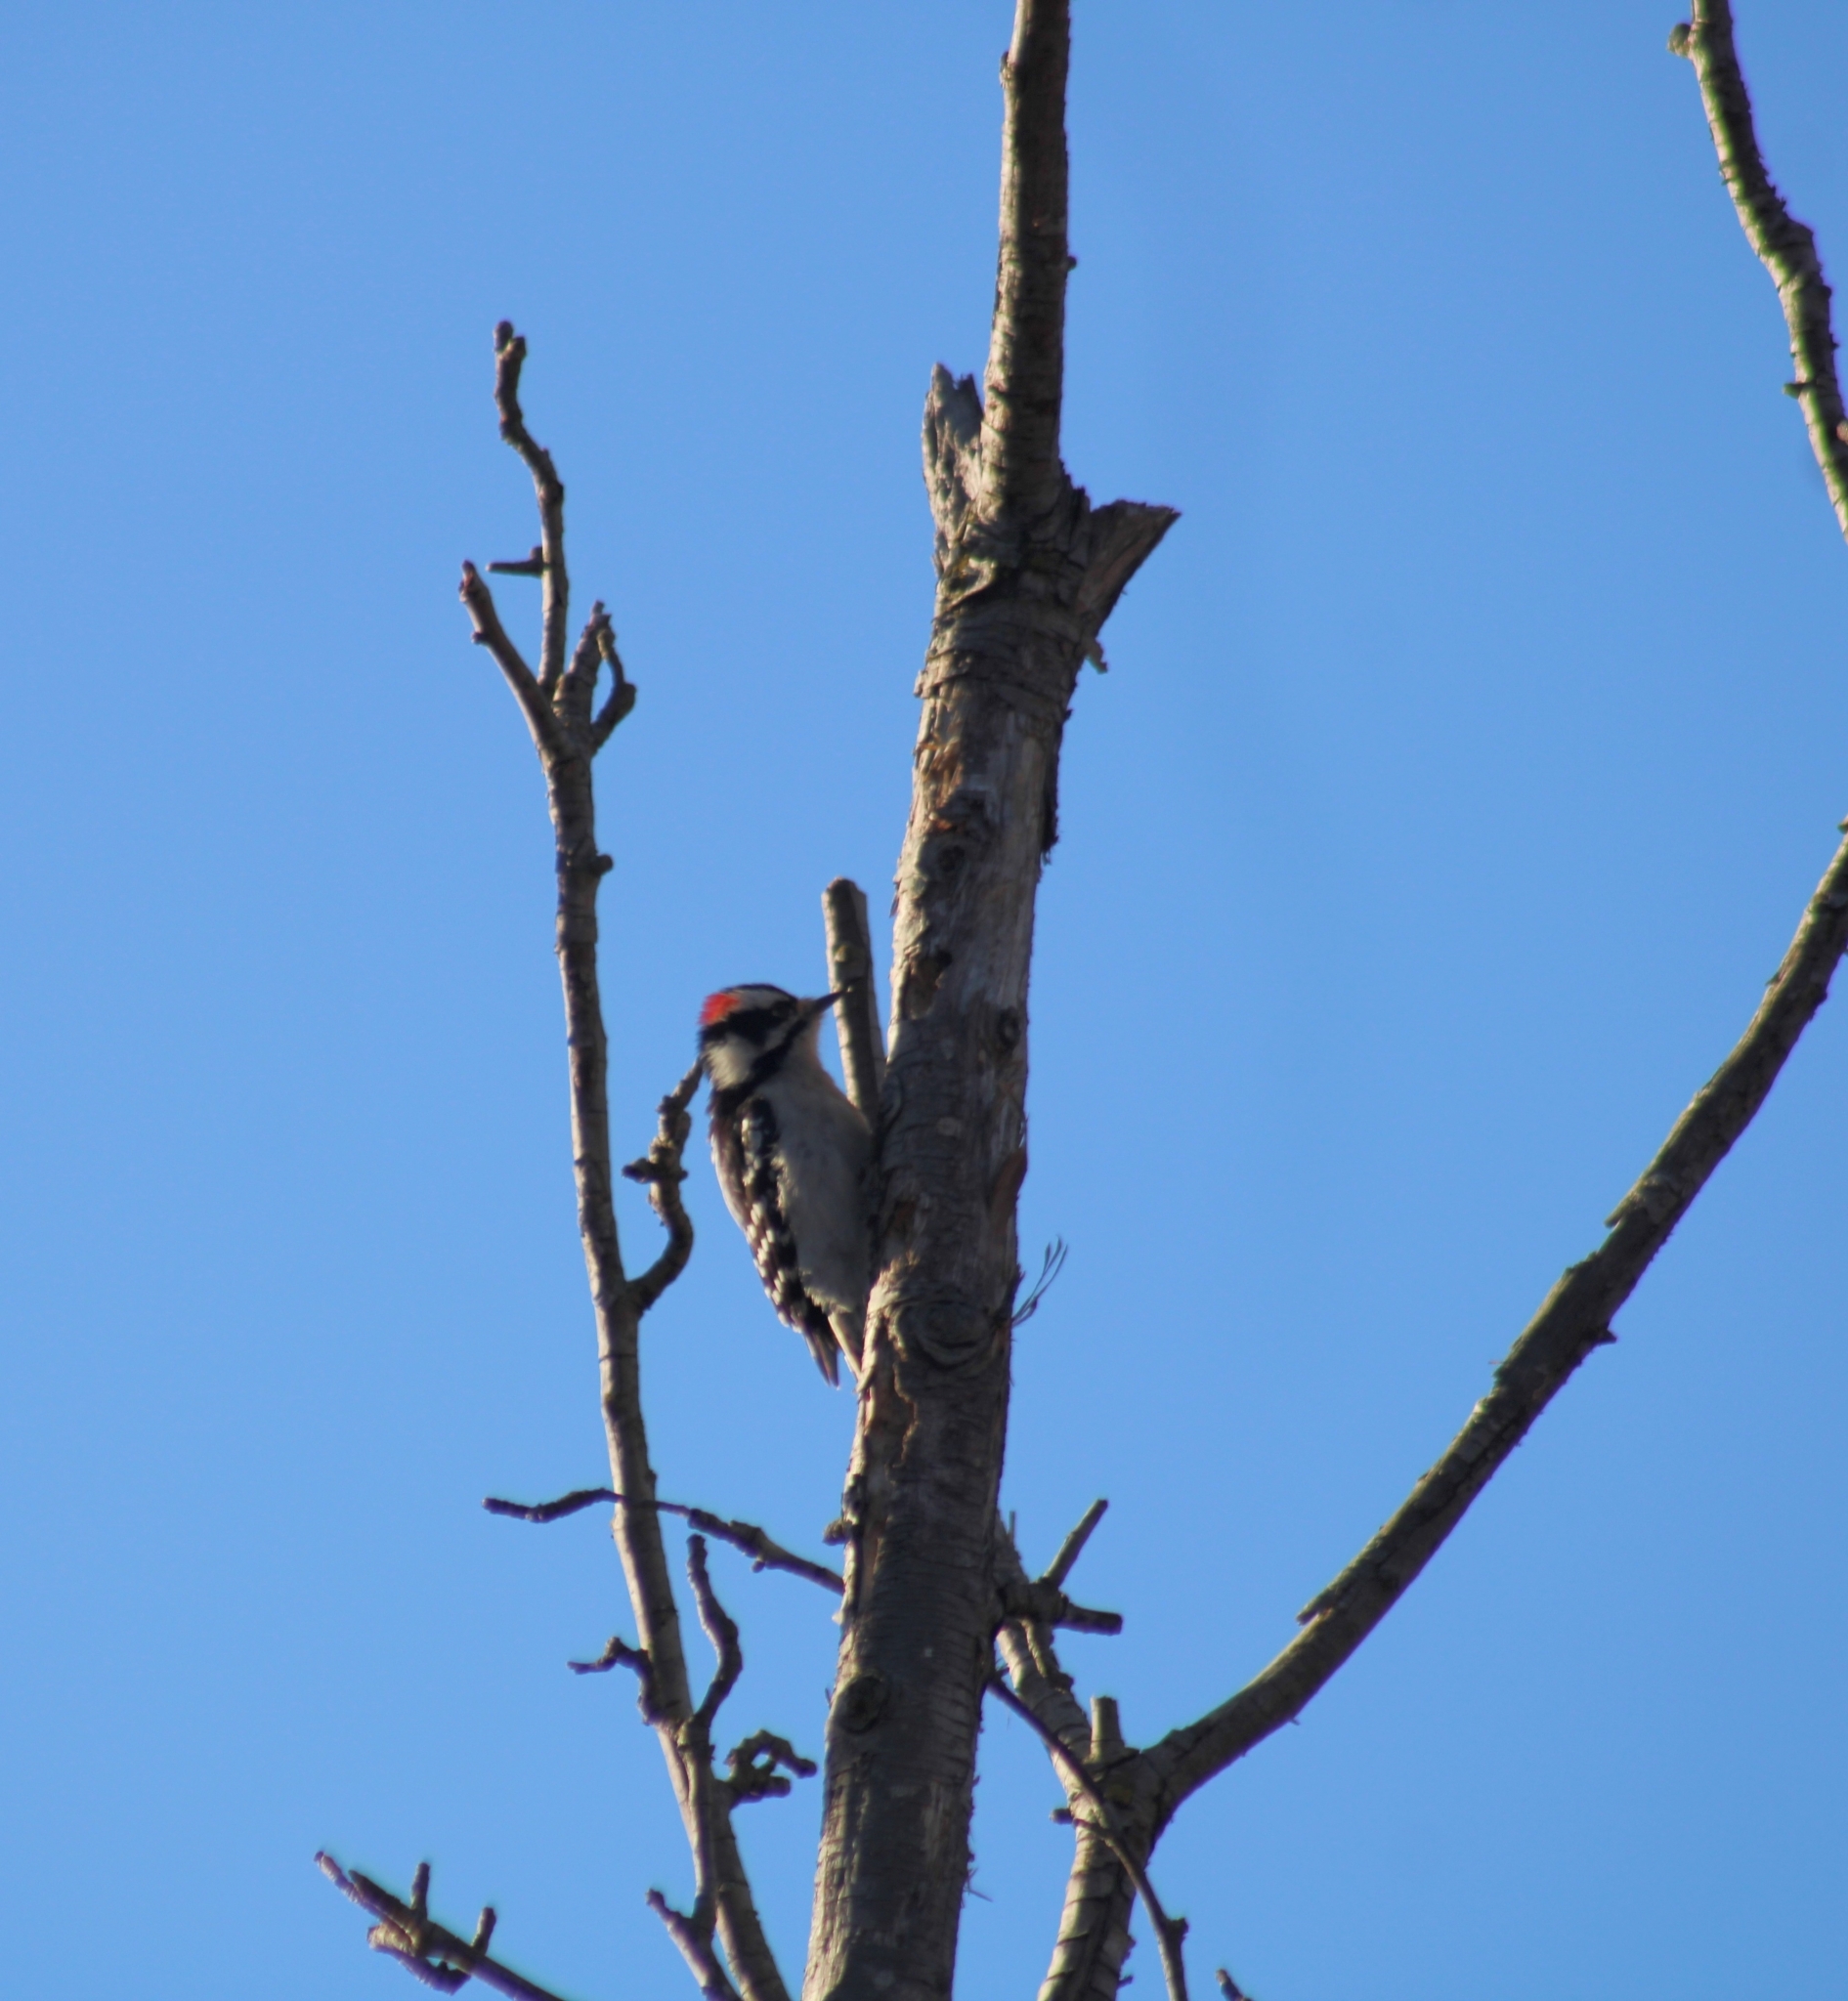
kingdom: Animalia
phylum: Chordata
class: Aves
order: Piciformes
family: Picidae
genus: Dryobates
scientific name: Dryobates pubescens
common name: Downy woodpecker
